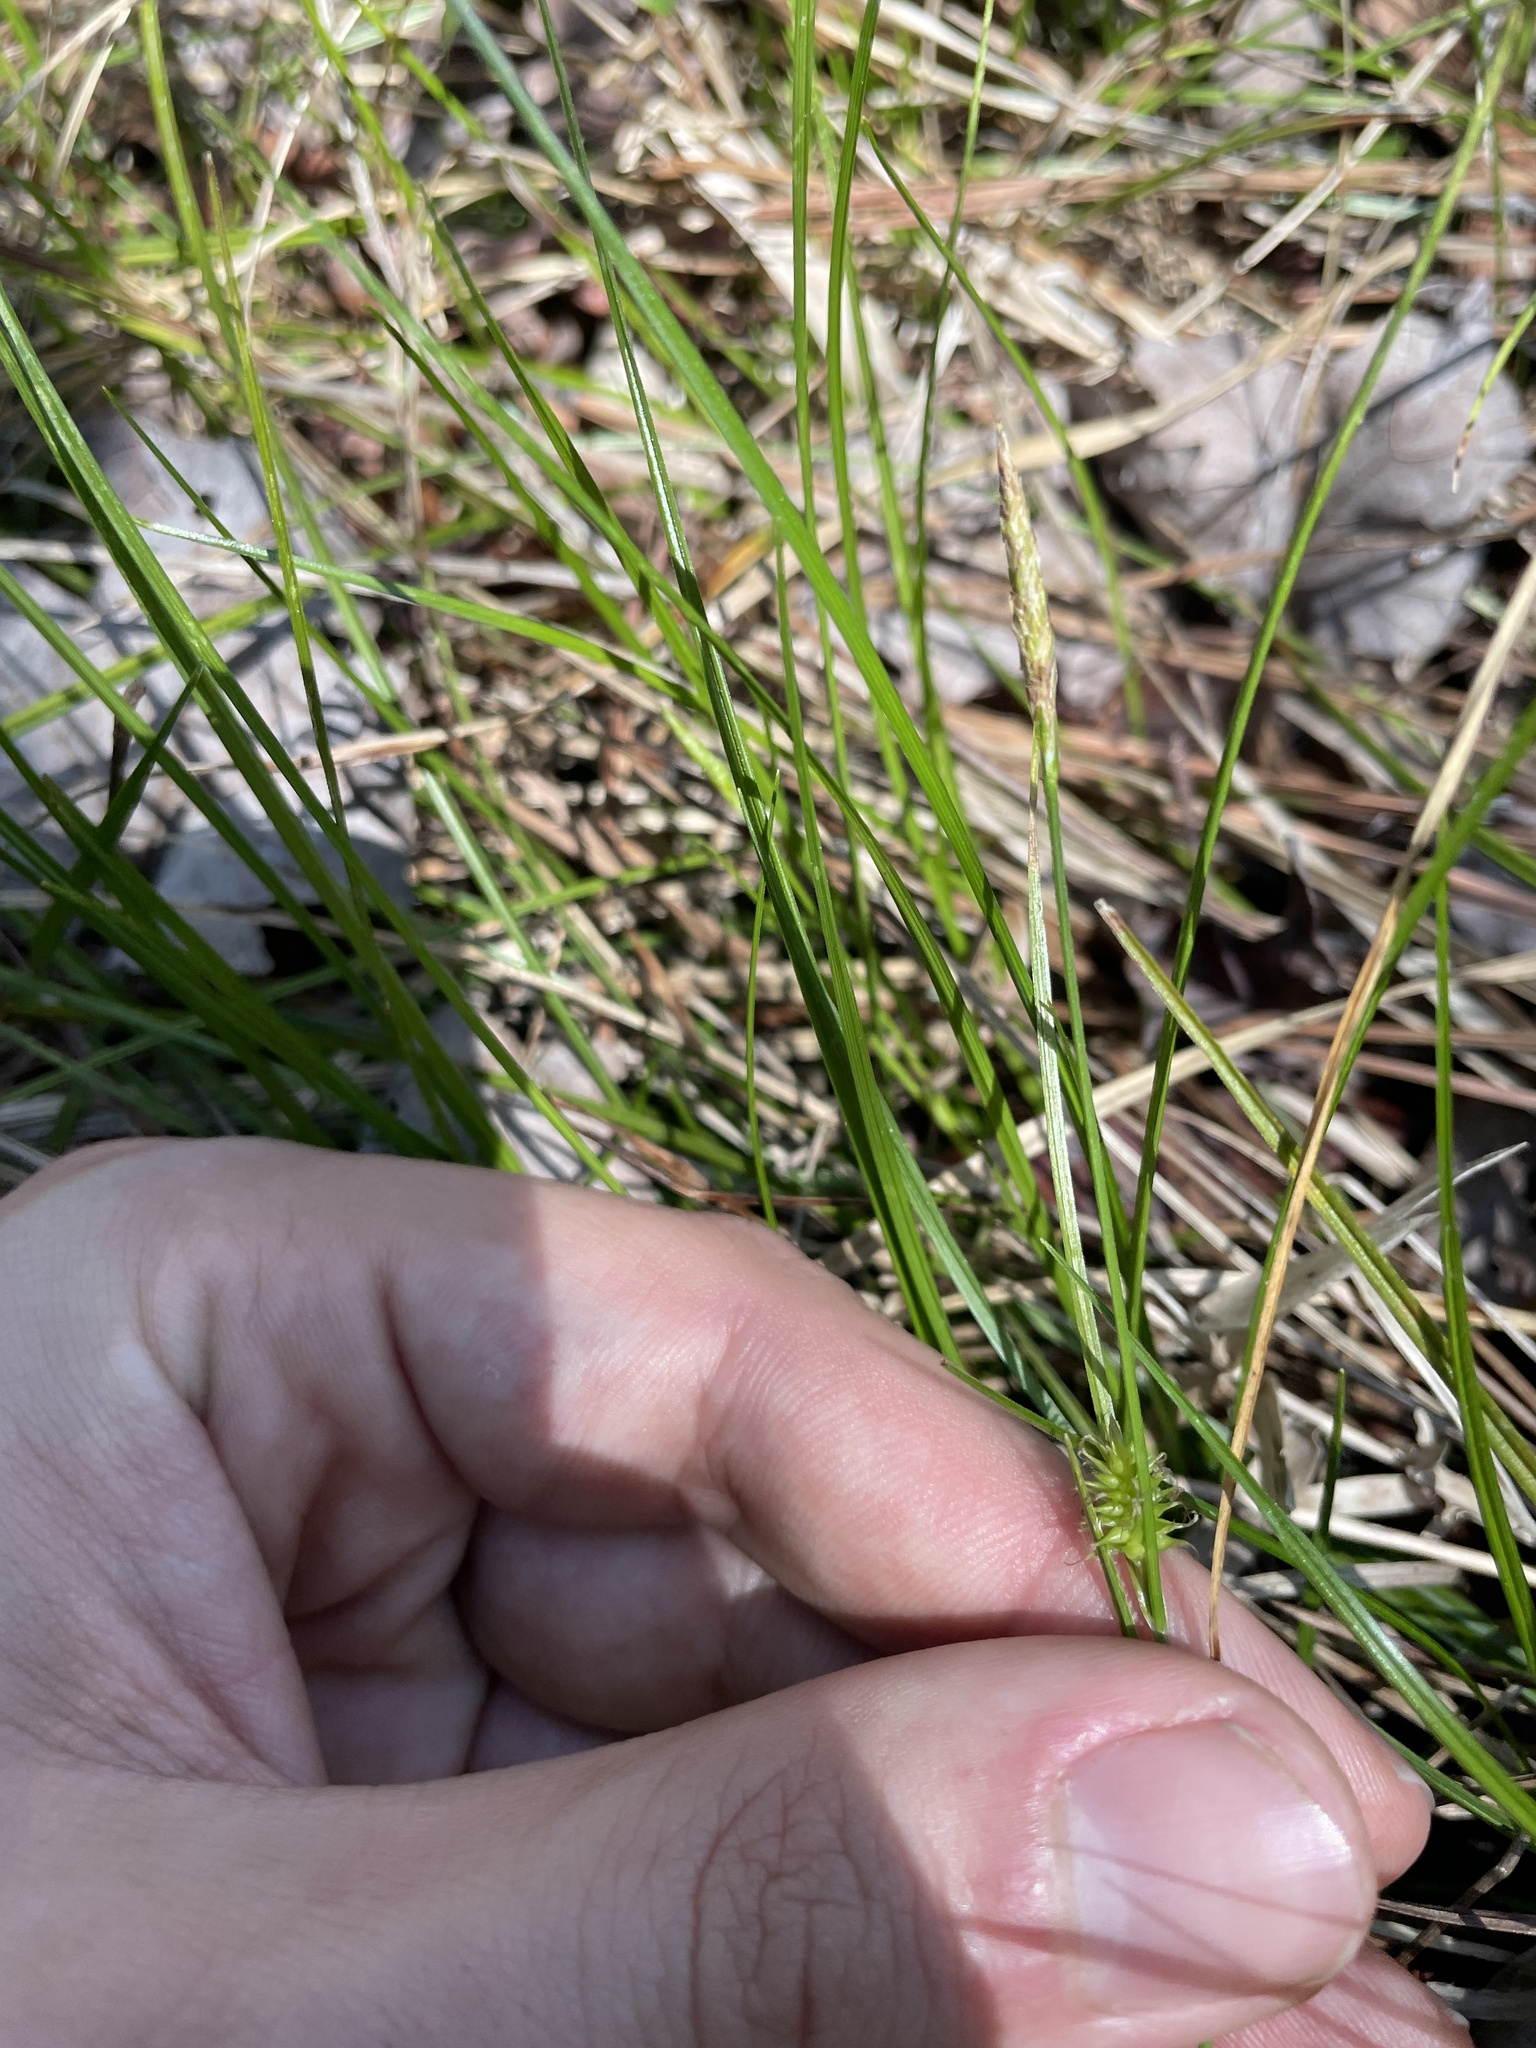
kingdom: Plantae
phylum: Tracheophyta
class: Liliopsida
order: Poales
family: Cyperaceae
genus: Carex
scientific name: Carex lutea
